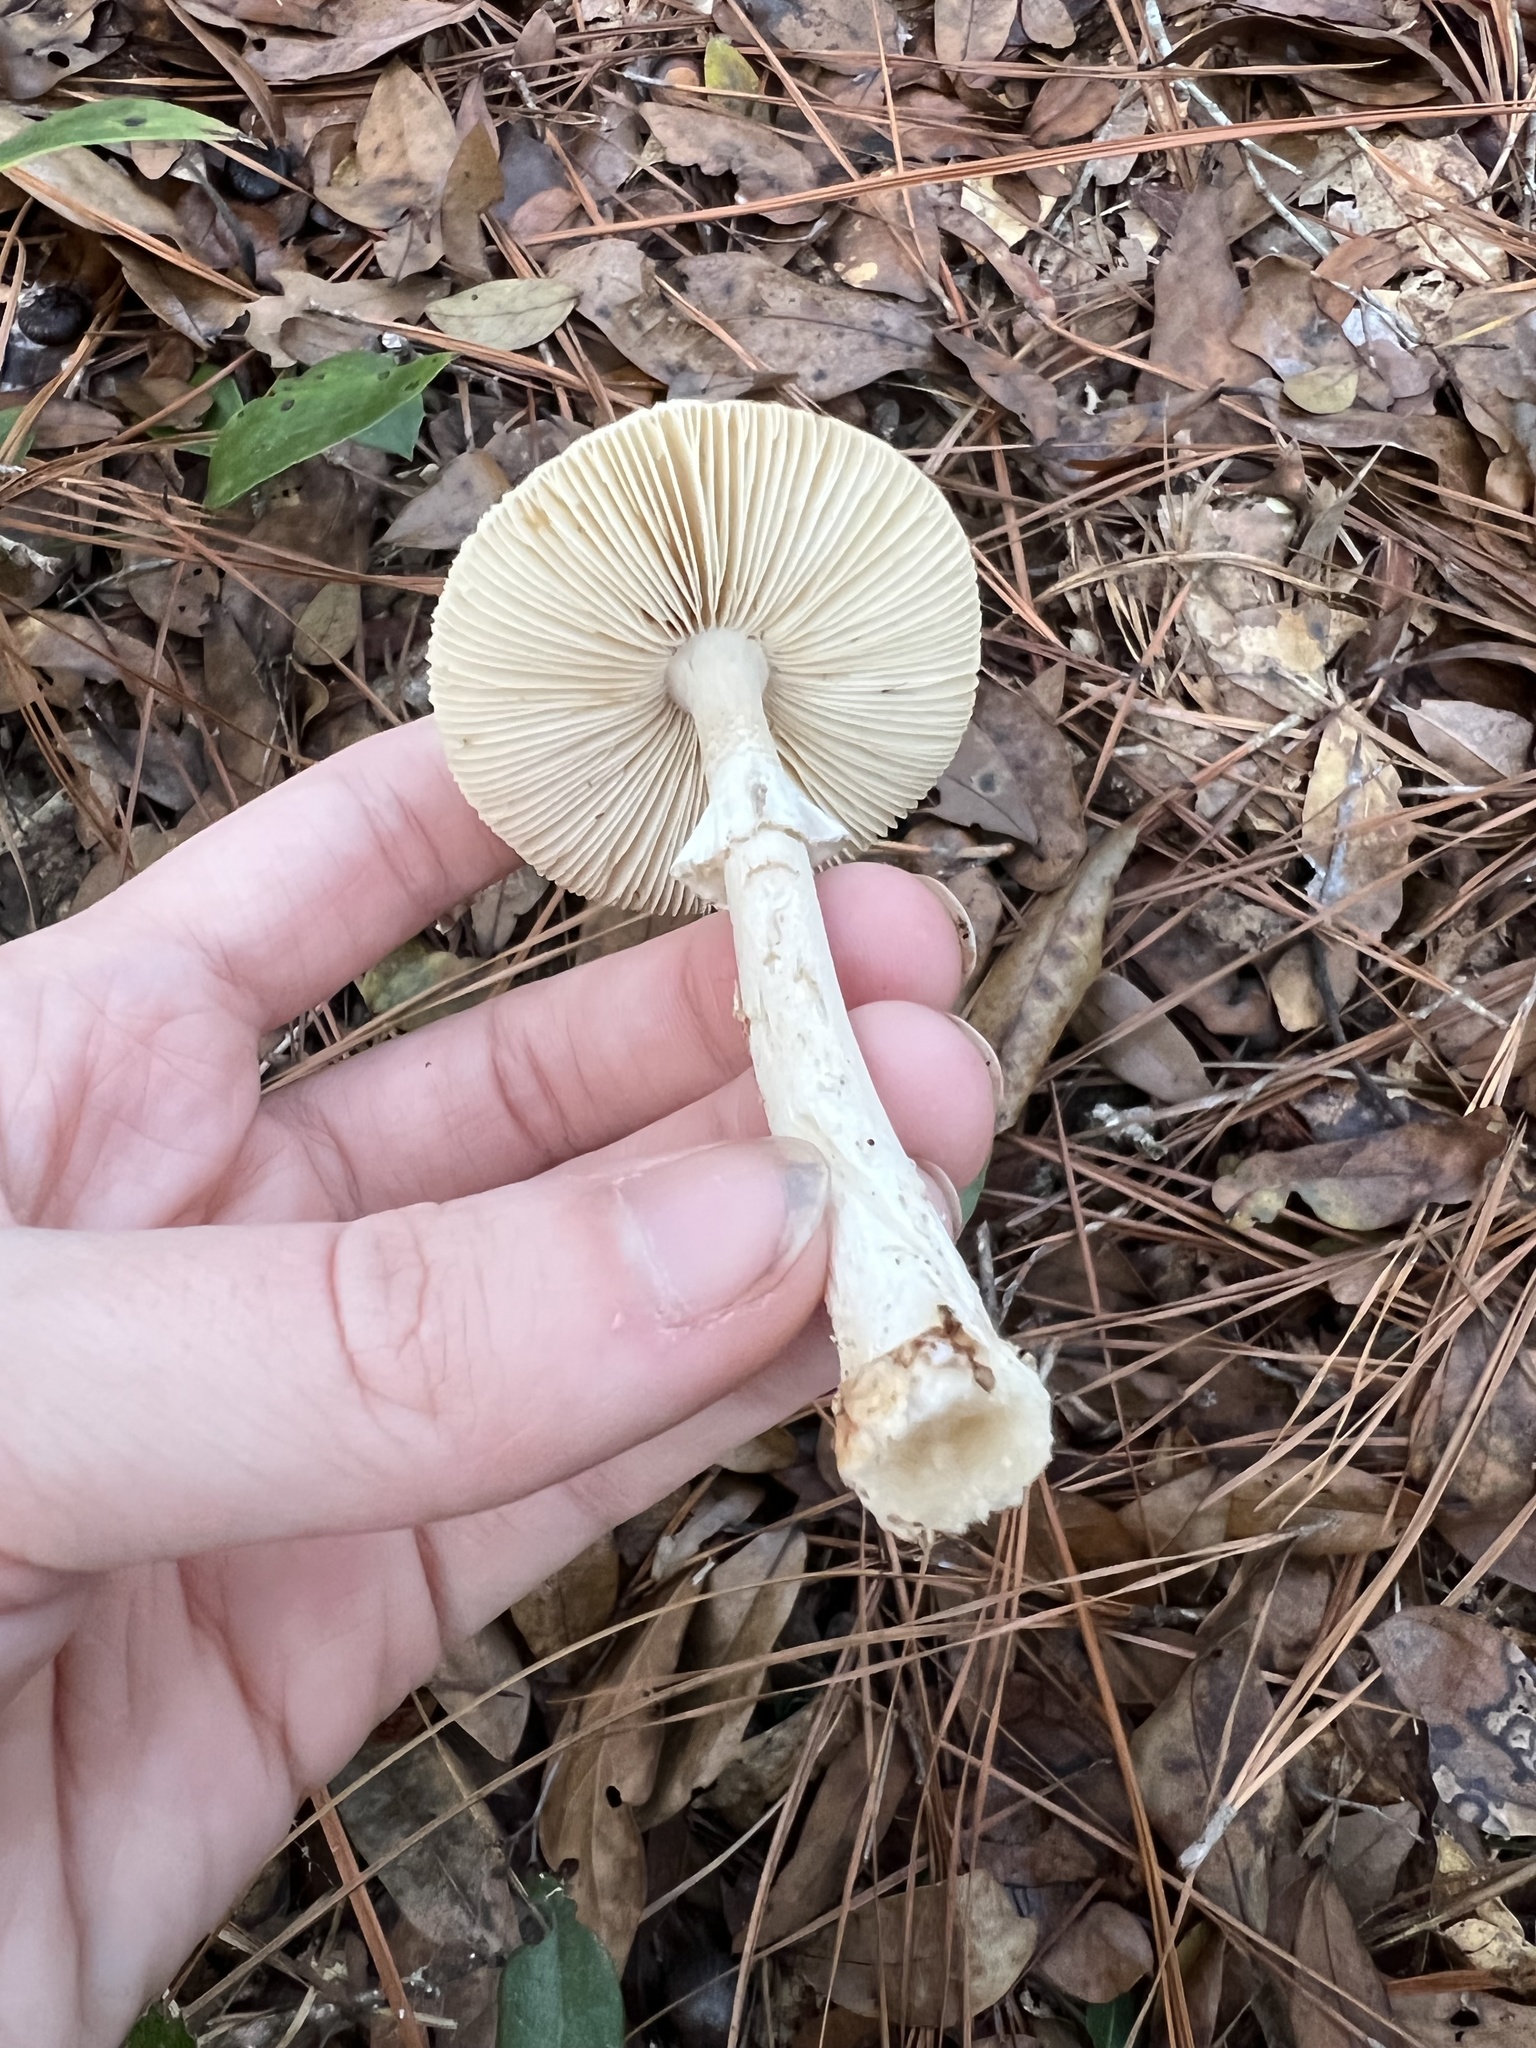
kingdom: Fungi
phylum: Basidiomycota
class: Agaricomycetes
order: Agaricales
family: Amanitaceae
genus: Amanita
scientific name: Amanita
